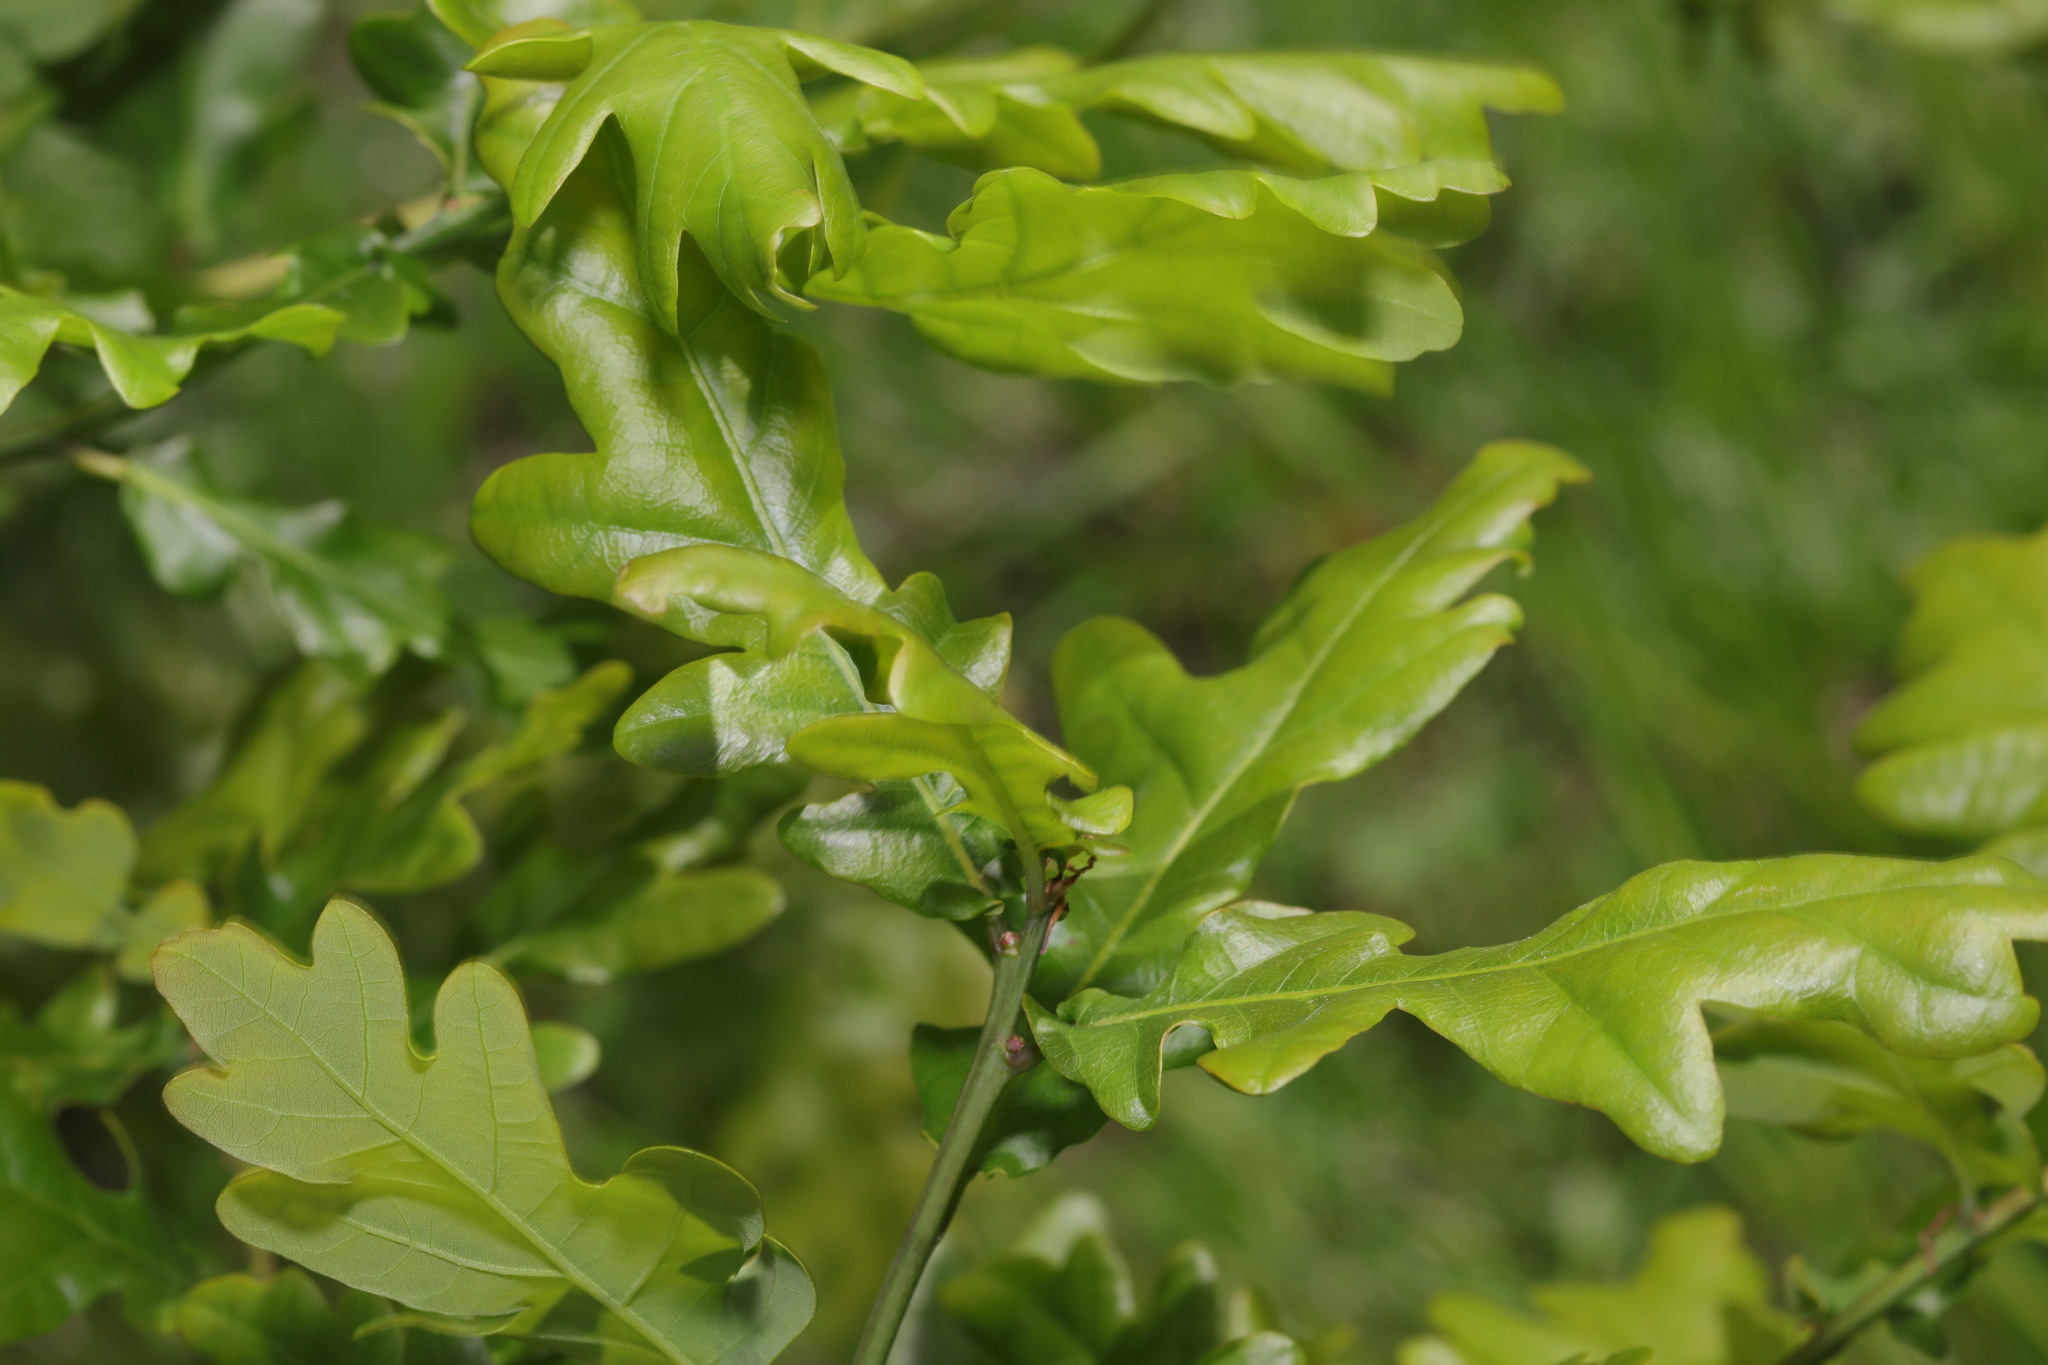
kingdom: Plantae
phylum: Tracheophyta
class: Magnoliopsida
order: Fagales
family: Fagaceae
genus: Quercus
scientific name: Quercus robur
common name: Pedunculate oak
